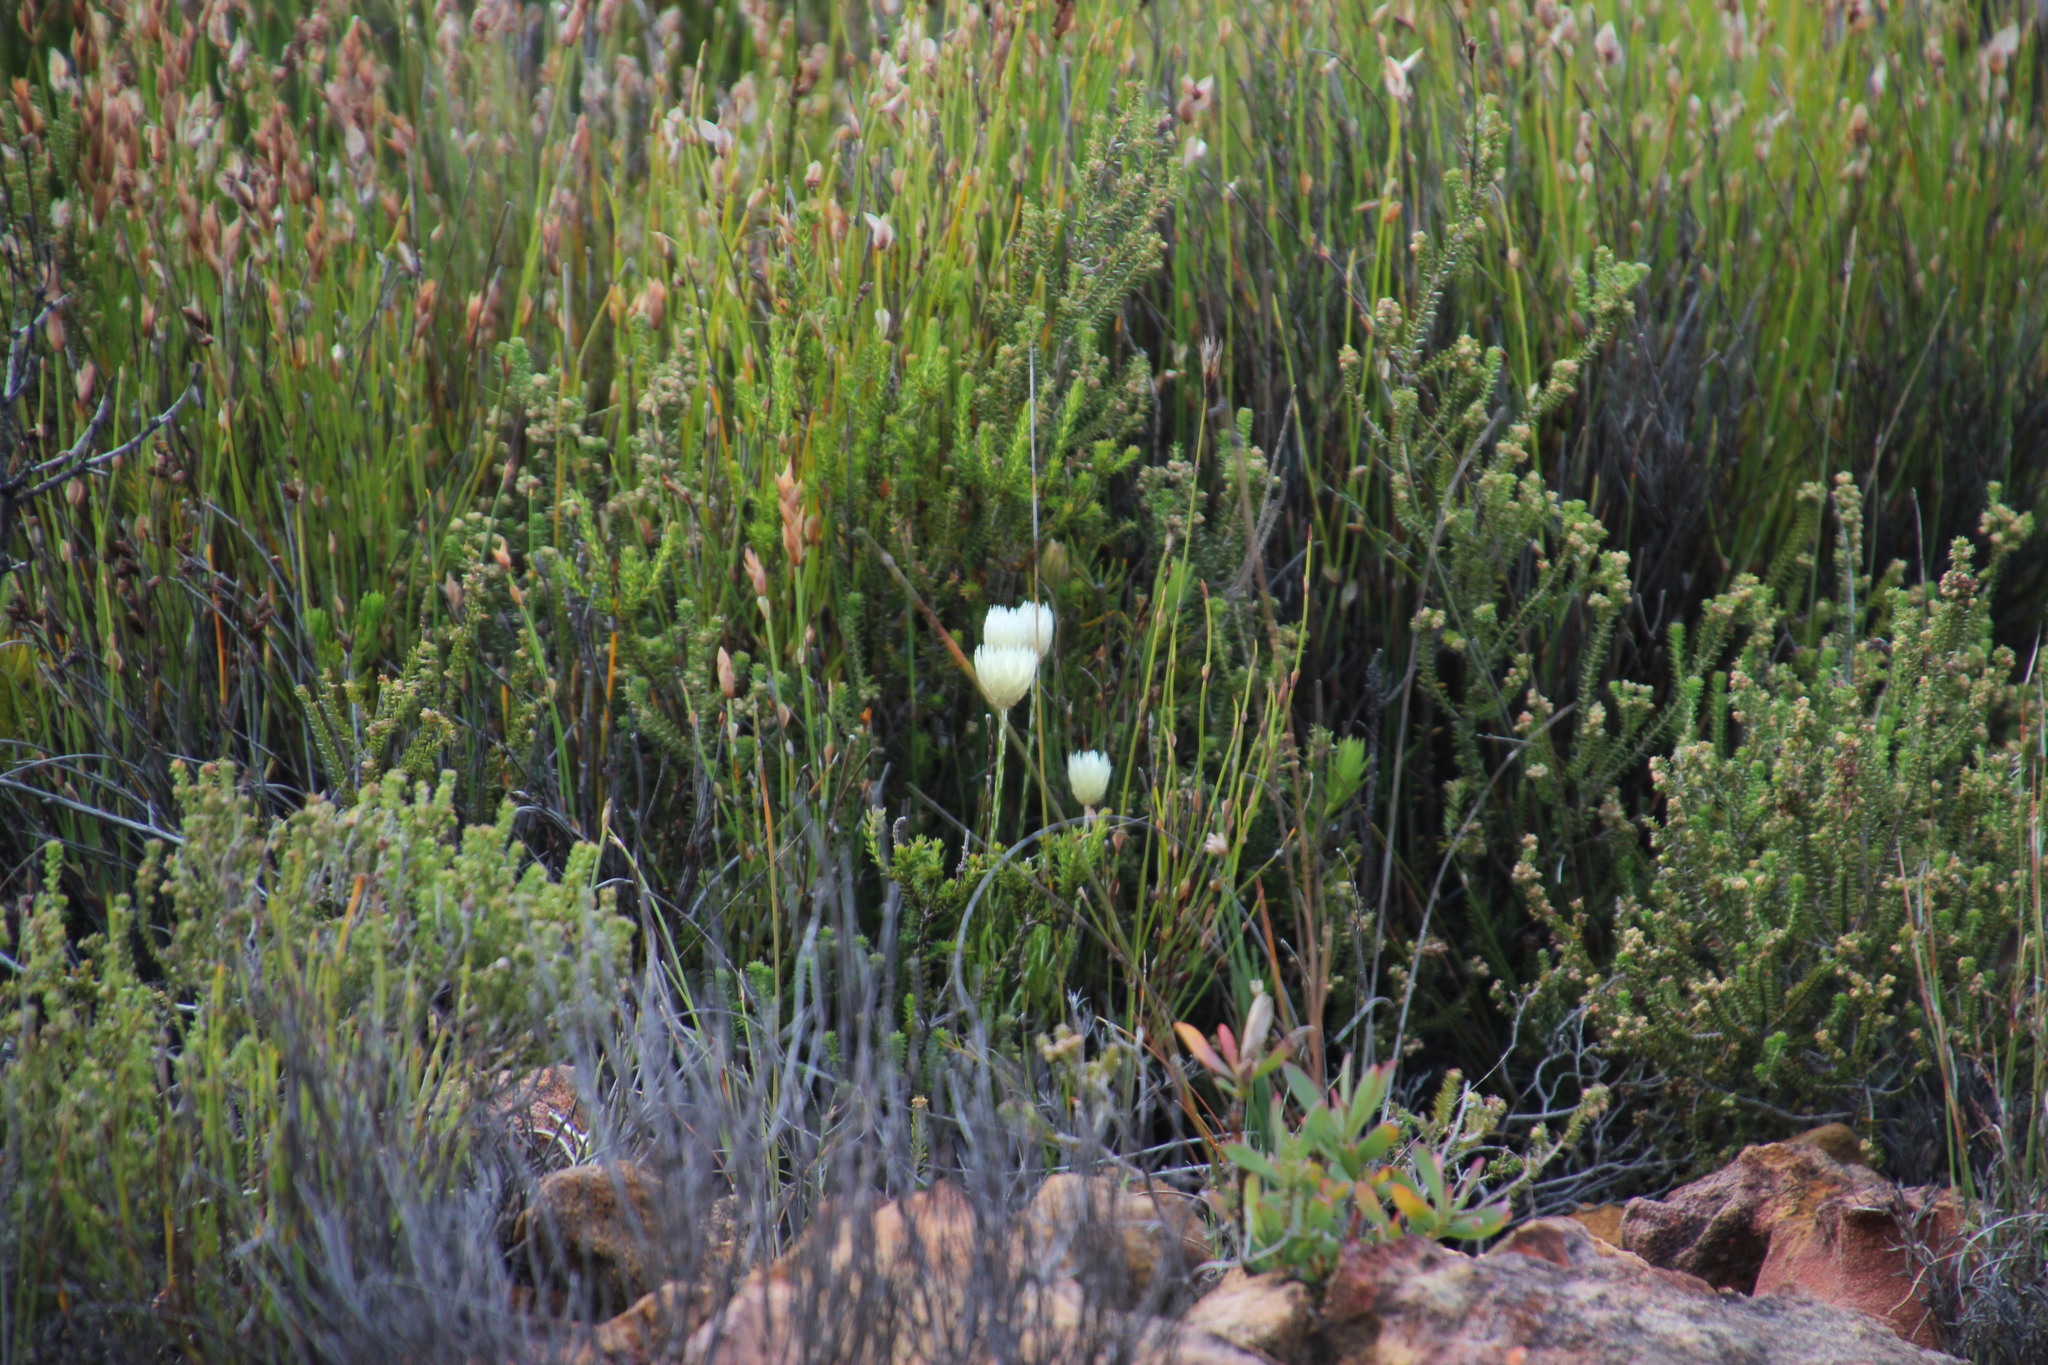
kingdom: Plantae
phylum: Tracheophyta
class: Magnoliopsida
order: Asterales
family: Asteraceae
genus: Edmondia
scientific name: Edmondia sesamoides
